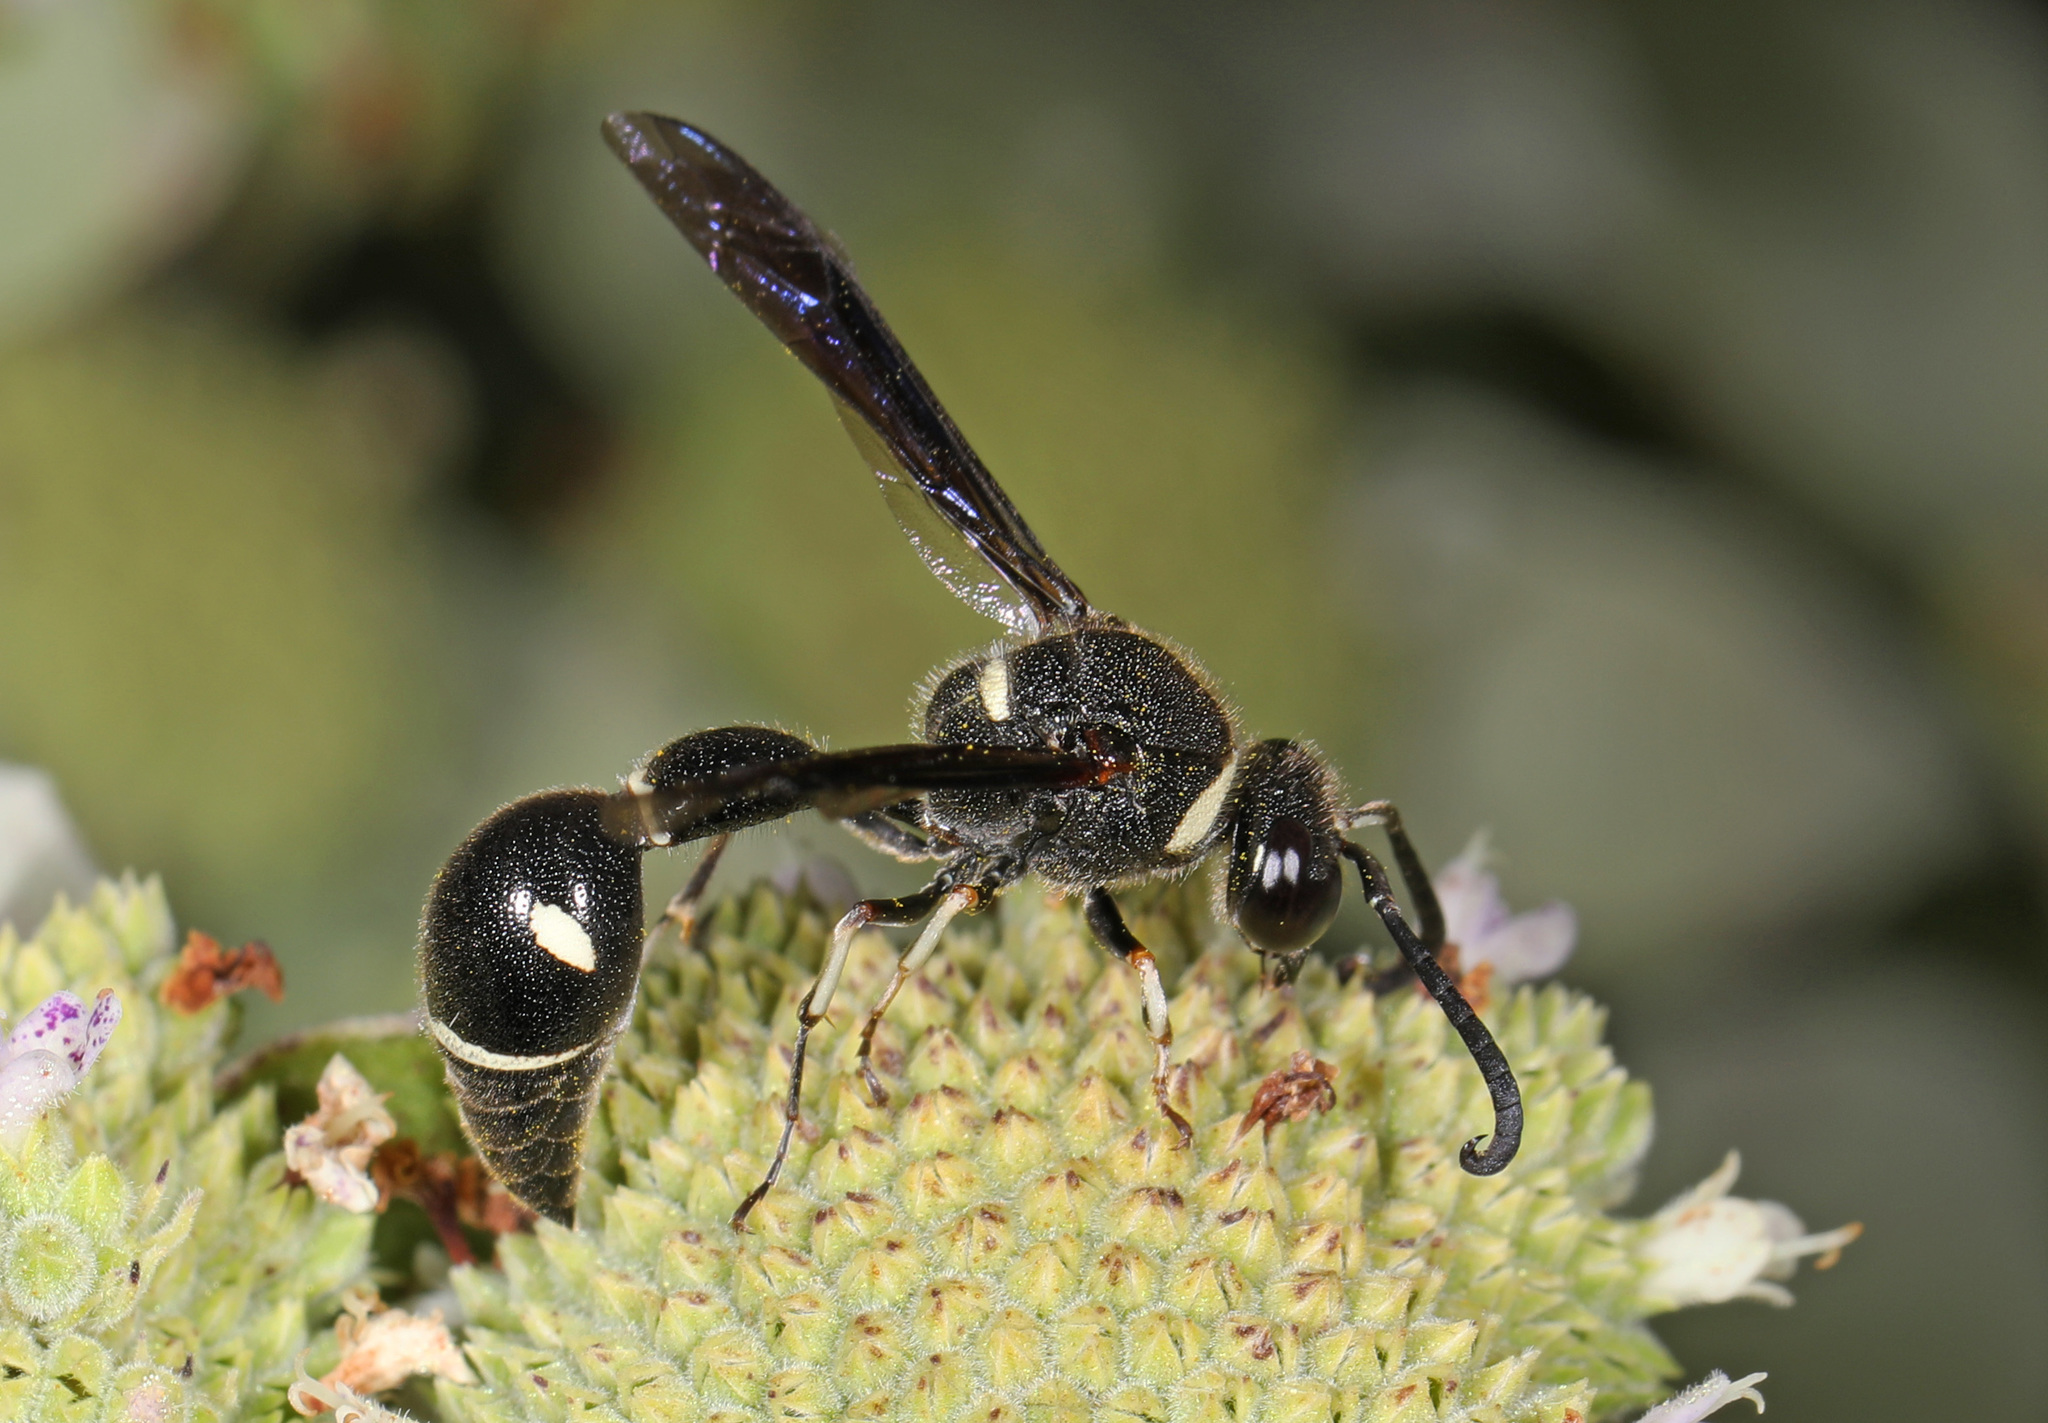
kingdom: Animalia
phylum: Arthropoda
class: Insecta
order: Hymenoptera
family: Vespidae
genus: Eumenes
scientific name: Eumenes fraternus
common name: Fraternal potter wasp
